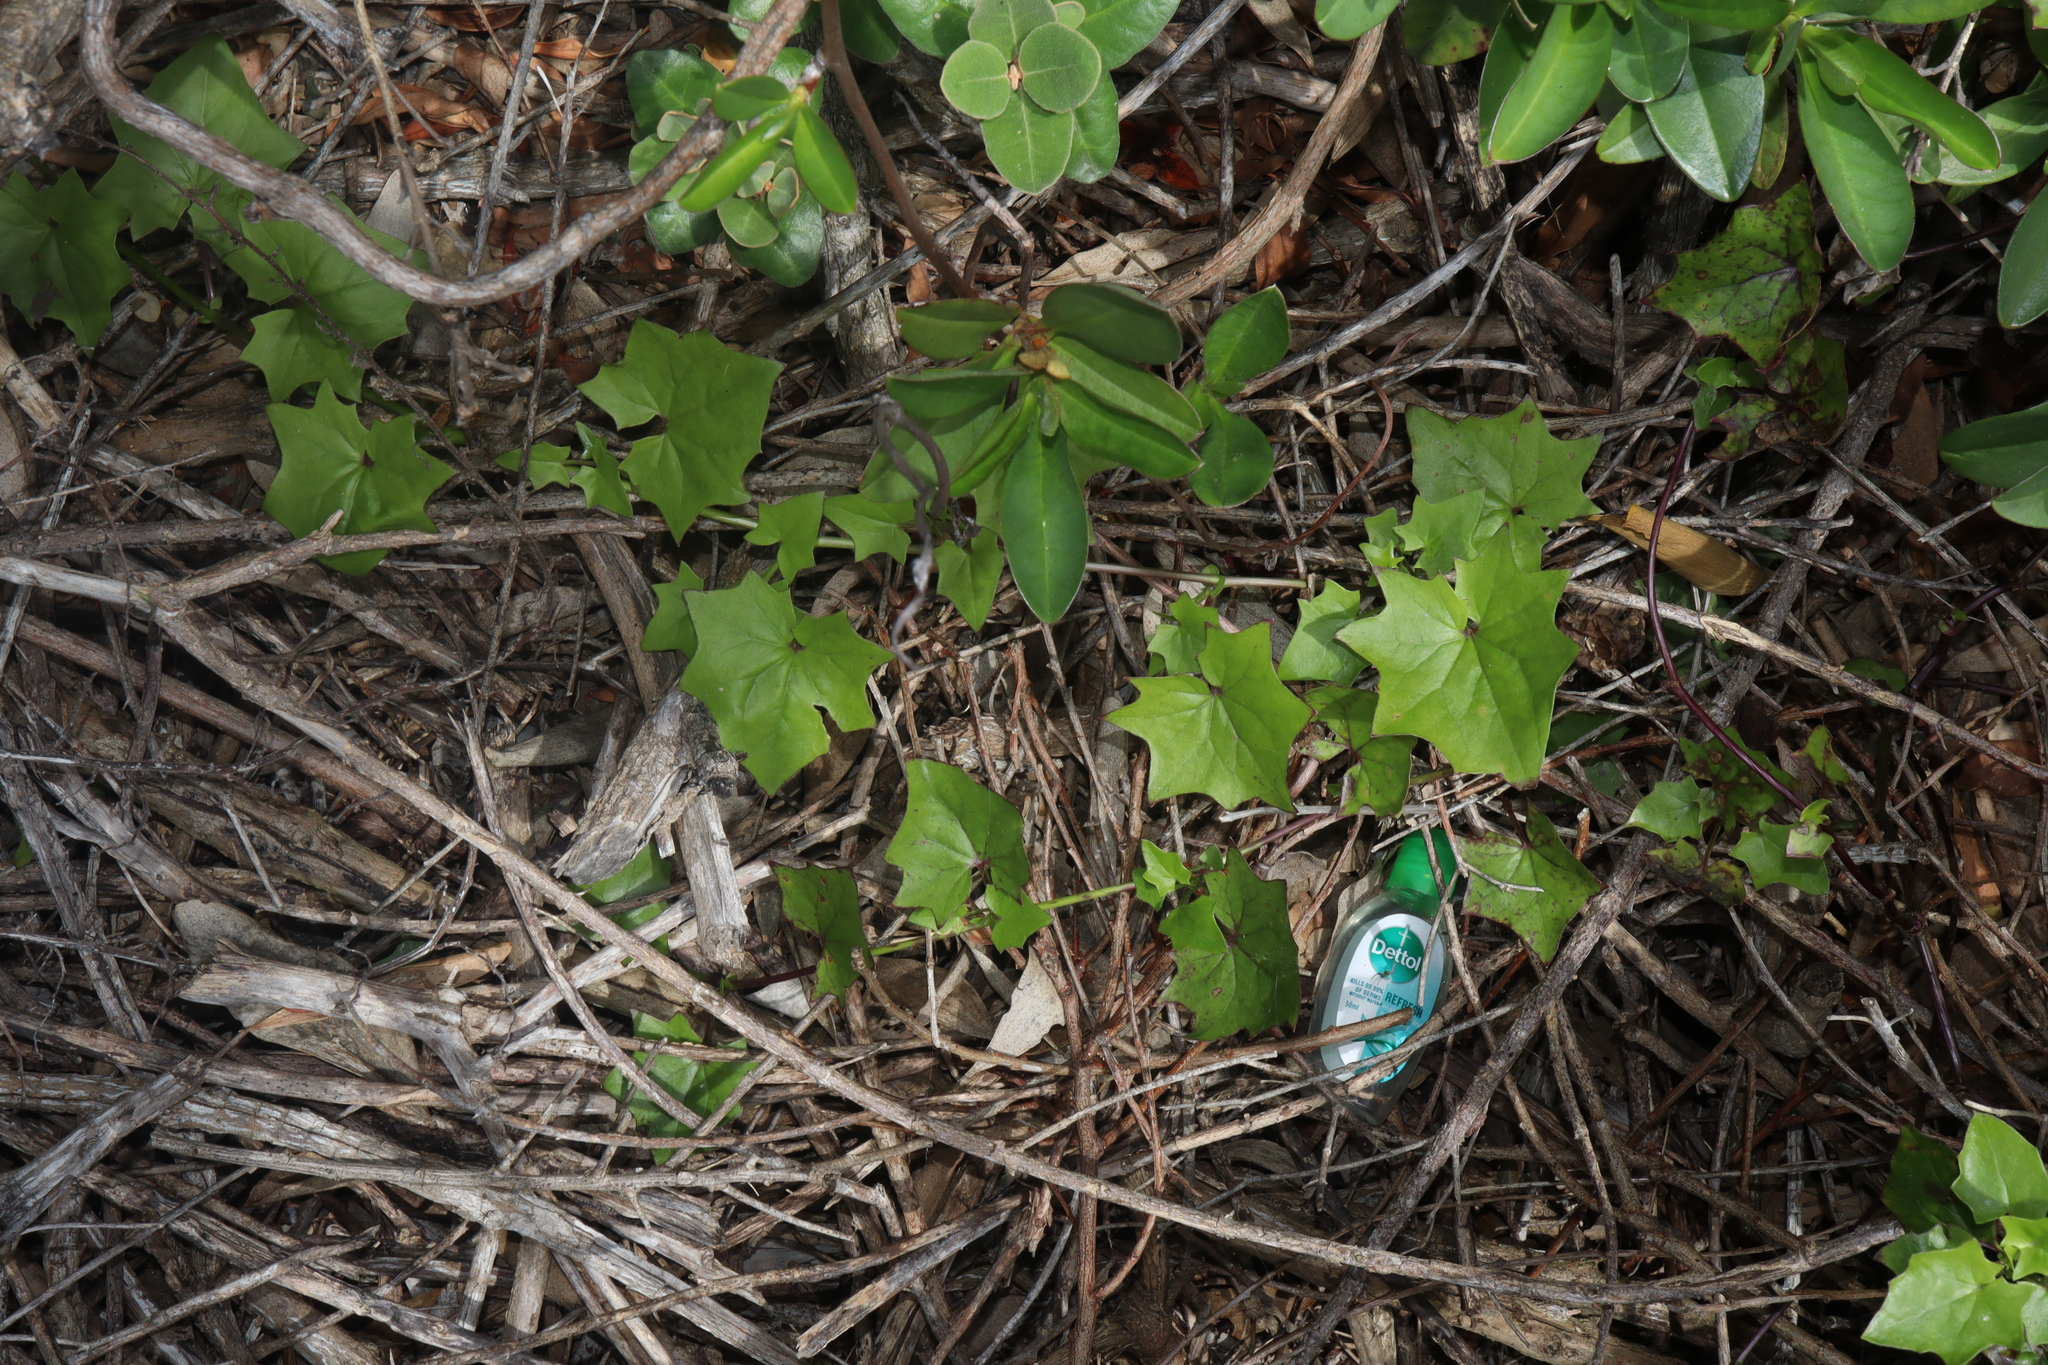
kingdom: Plantae
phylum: Tracheophyta
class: Magnoliopsida
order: Asterales
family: Asteraceae
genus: Delairea
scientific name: Delairea odorata
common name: Cape-ivy
